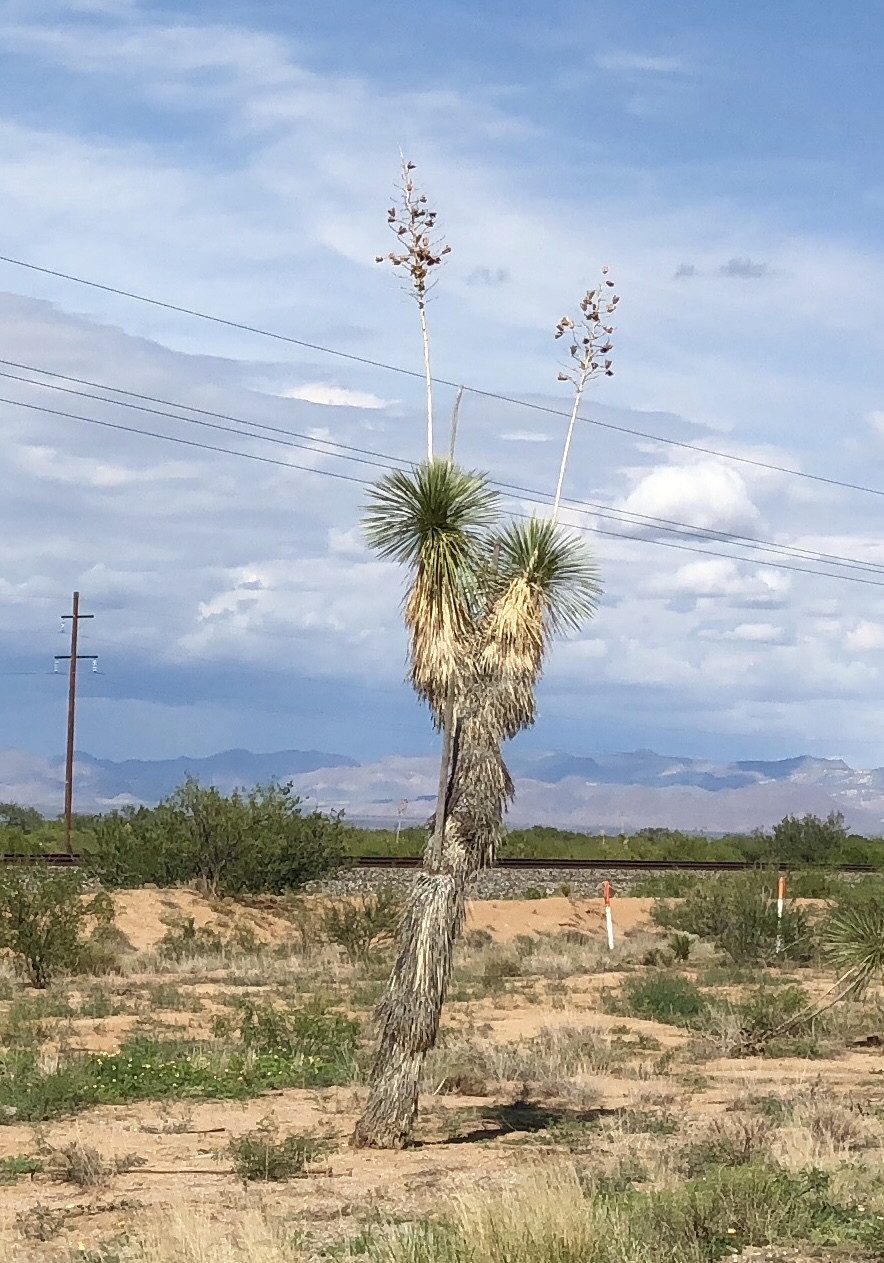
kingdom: Plantae
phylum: Tracheophyta
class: Liliopsida
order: Asparagales
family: Asparagaceae
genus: Yucca
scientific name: Yucca elata
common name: Palmella
